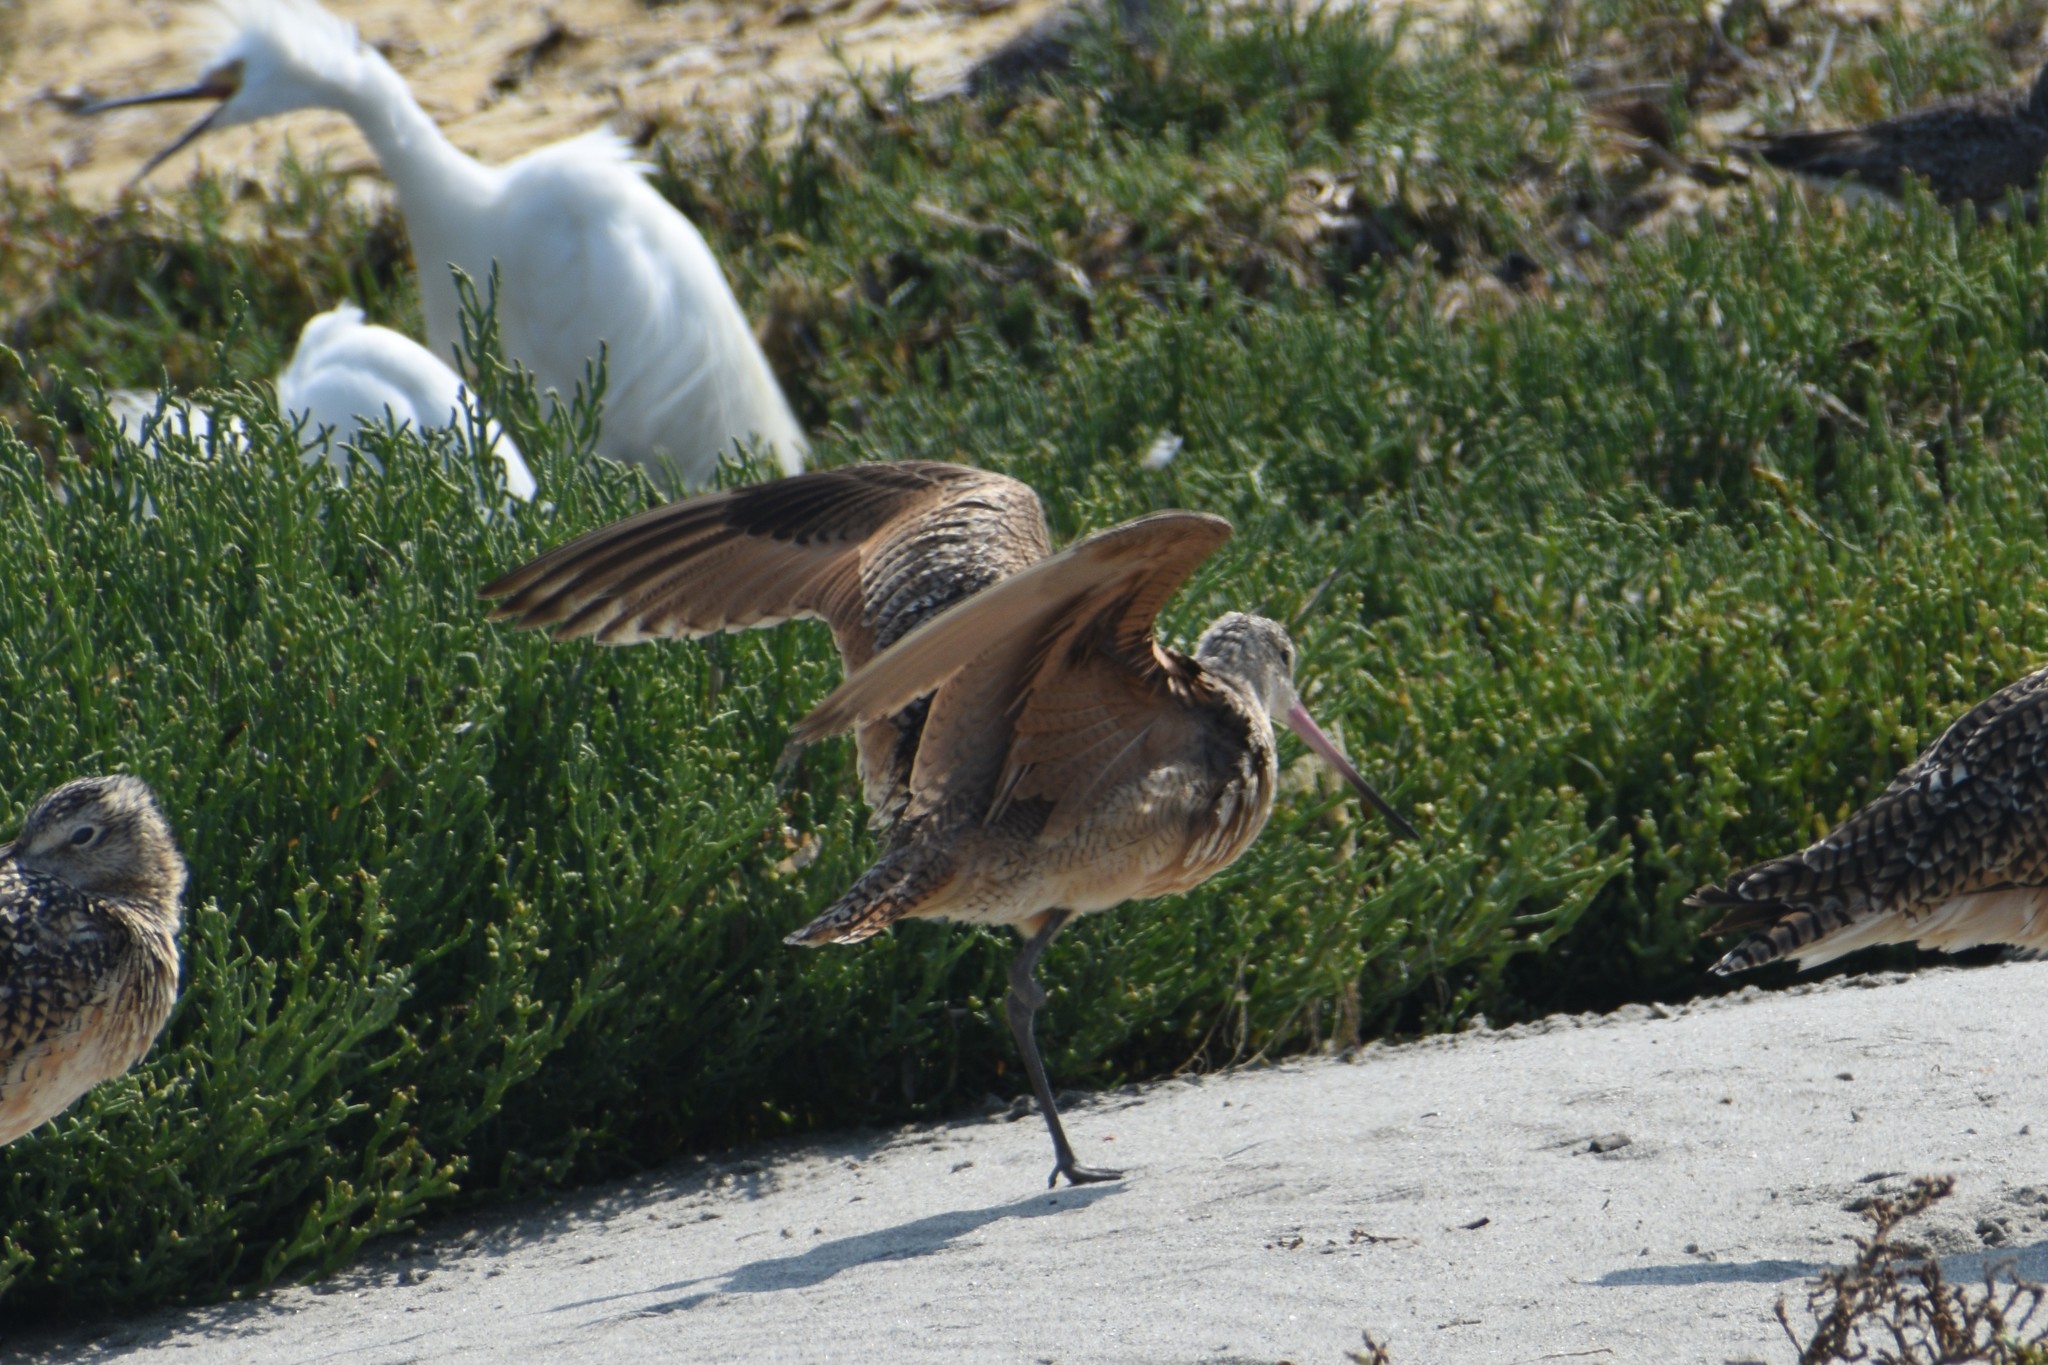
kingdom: Animalia
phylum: Chordata
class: Aves
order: Charadriiformes
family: Scolopacidae
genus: Limosa
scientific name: Limosa fedoa
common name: Marbled godwit
